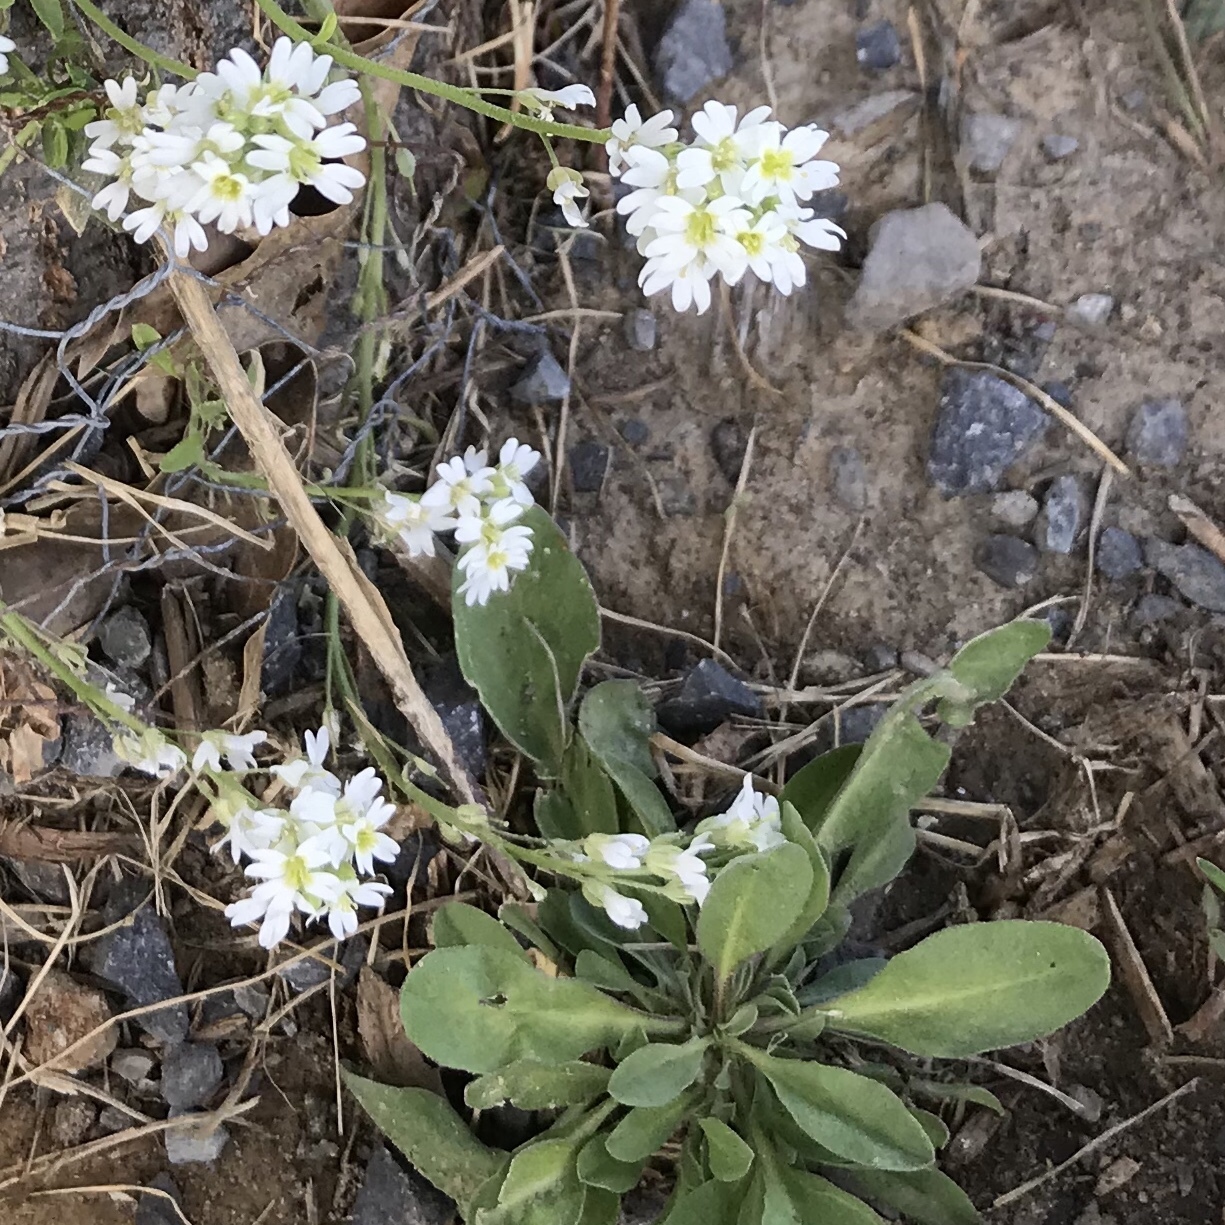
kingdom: Plantae
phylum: Tracheophyta
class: Magnoliopsida
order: Brassicales
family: Brassicaceae
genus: Berteroa
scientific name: Berteroa incana
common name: Hoary alison
